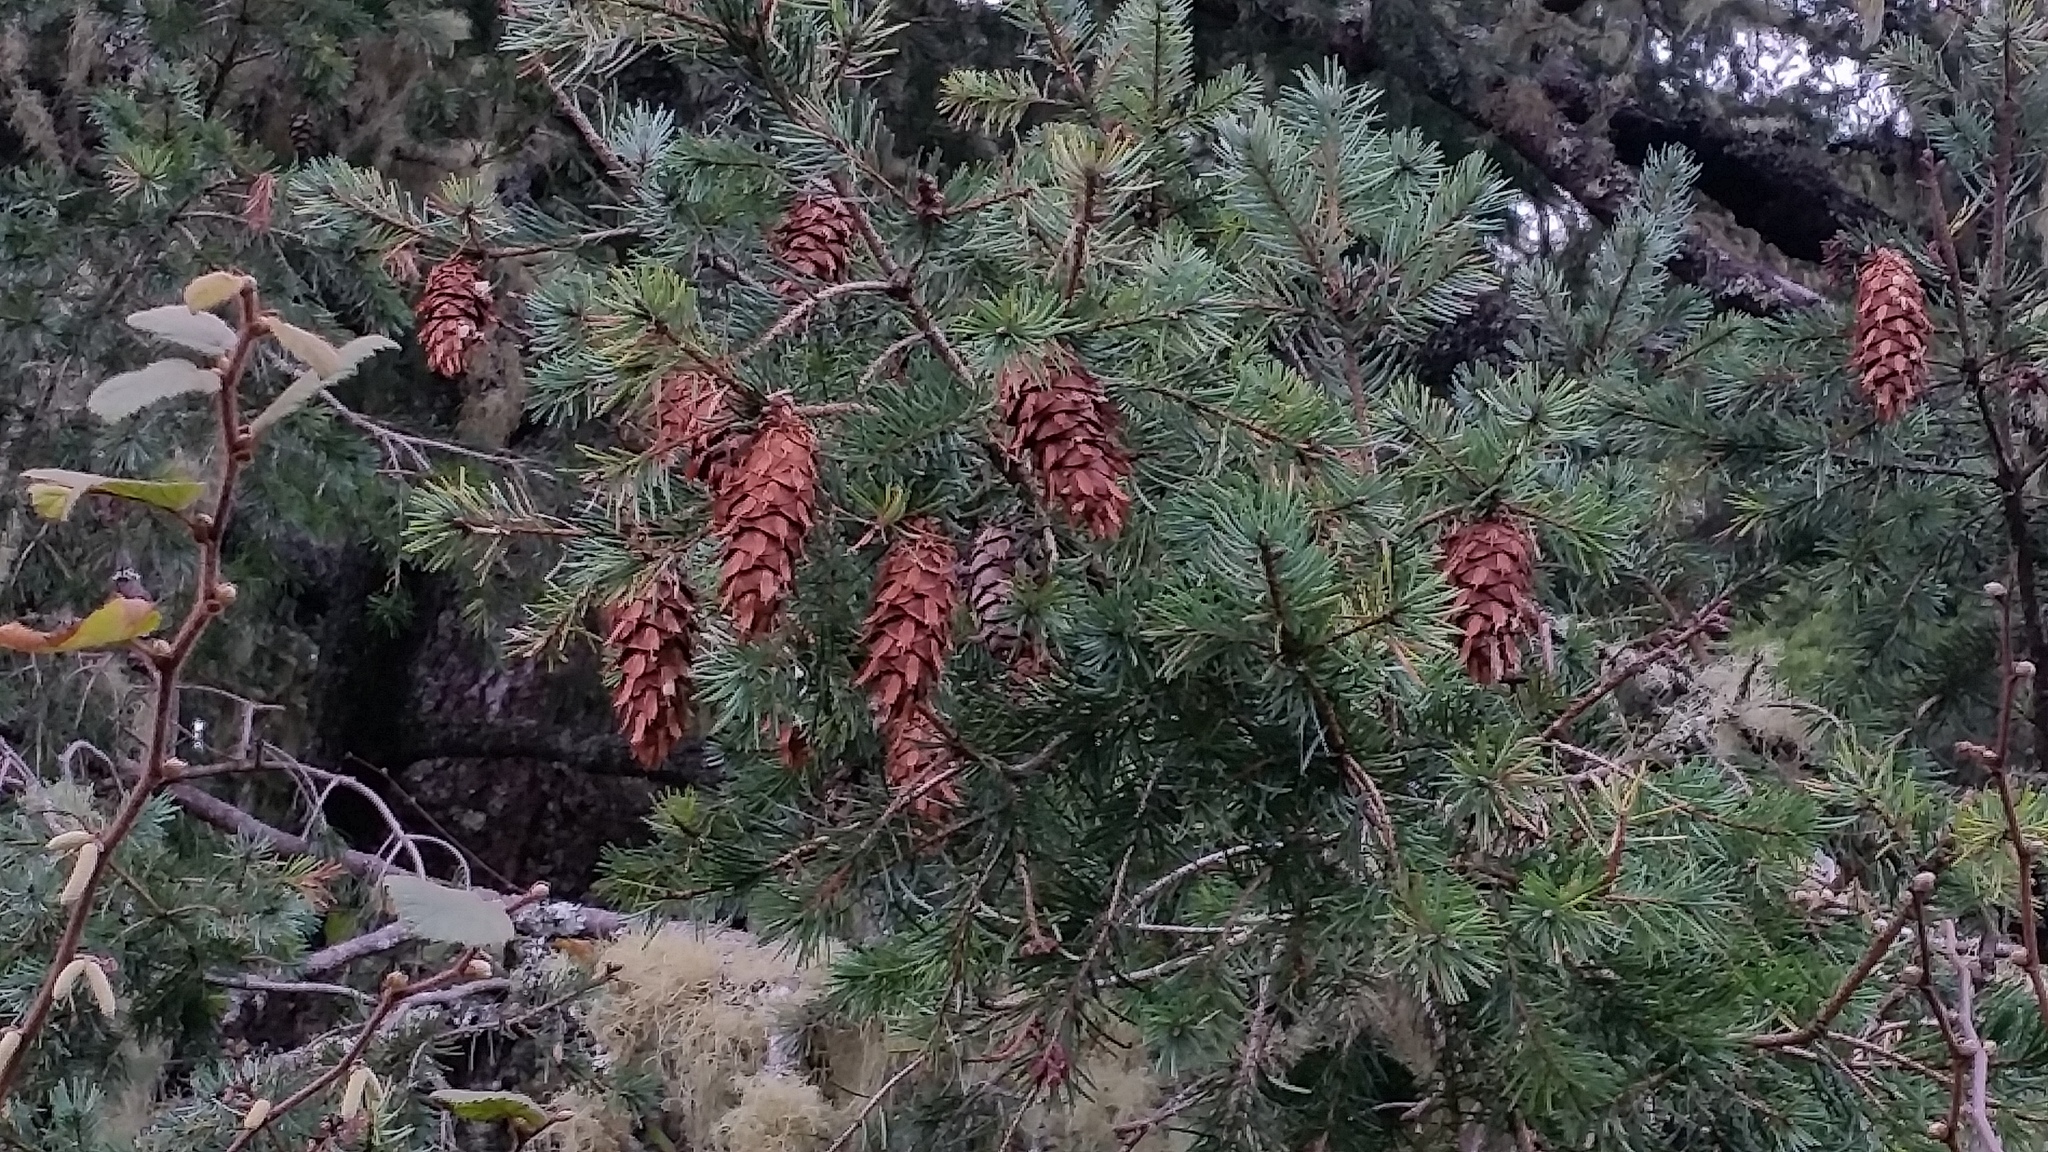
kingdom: Plantae
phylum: Tracheophyta
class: Pinopsida
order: Pinales
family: Pinaceae
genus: Pseudotsuga
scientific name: Pseudotsuga menziesii
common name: Douglas fir
